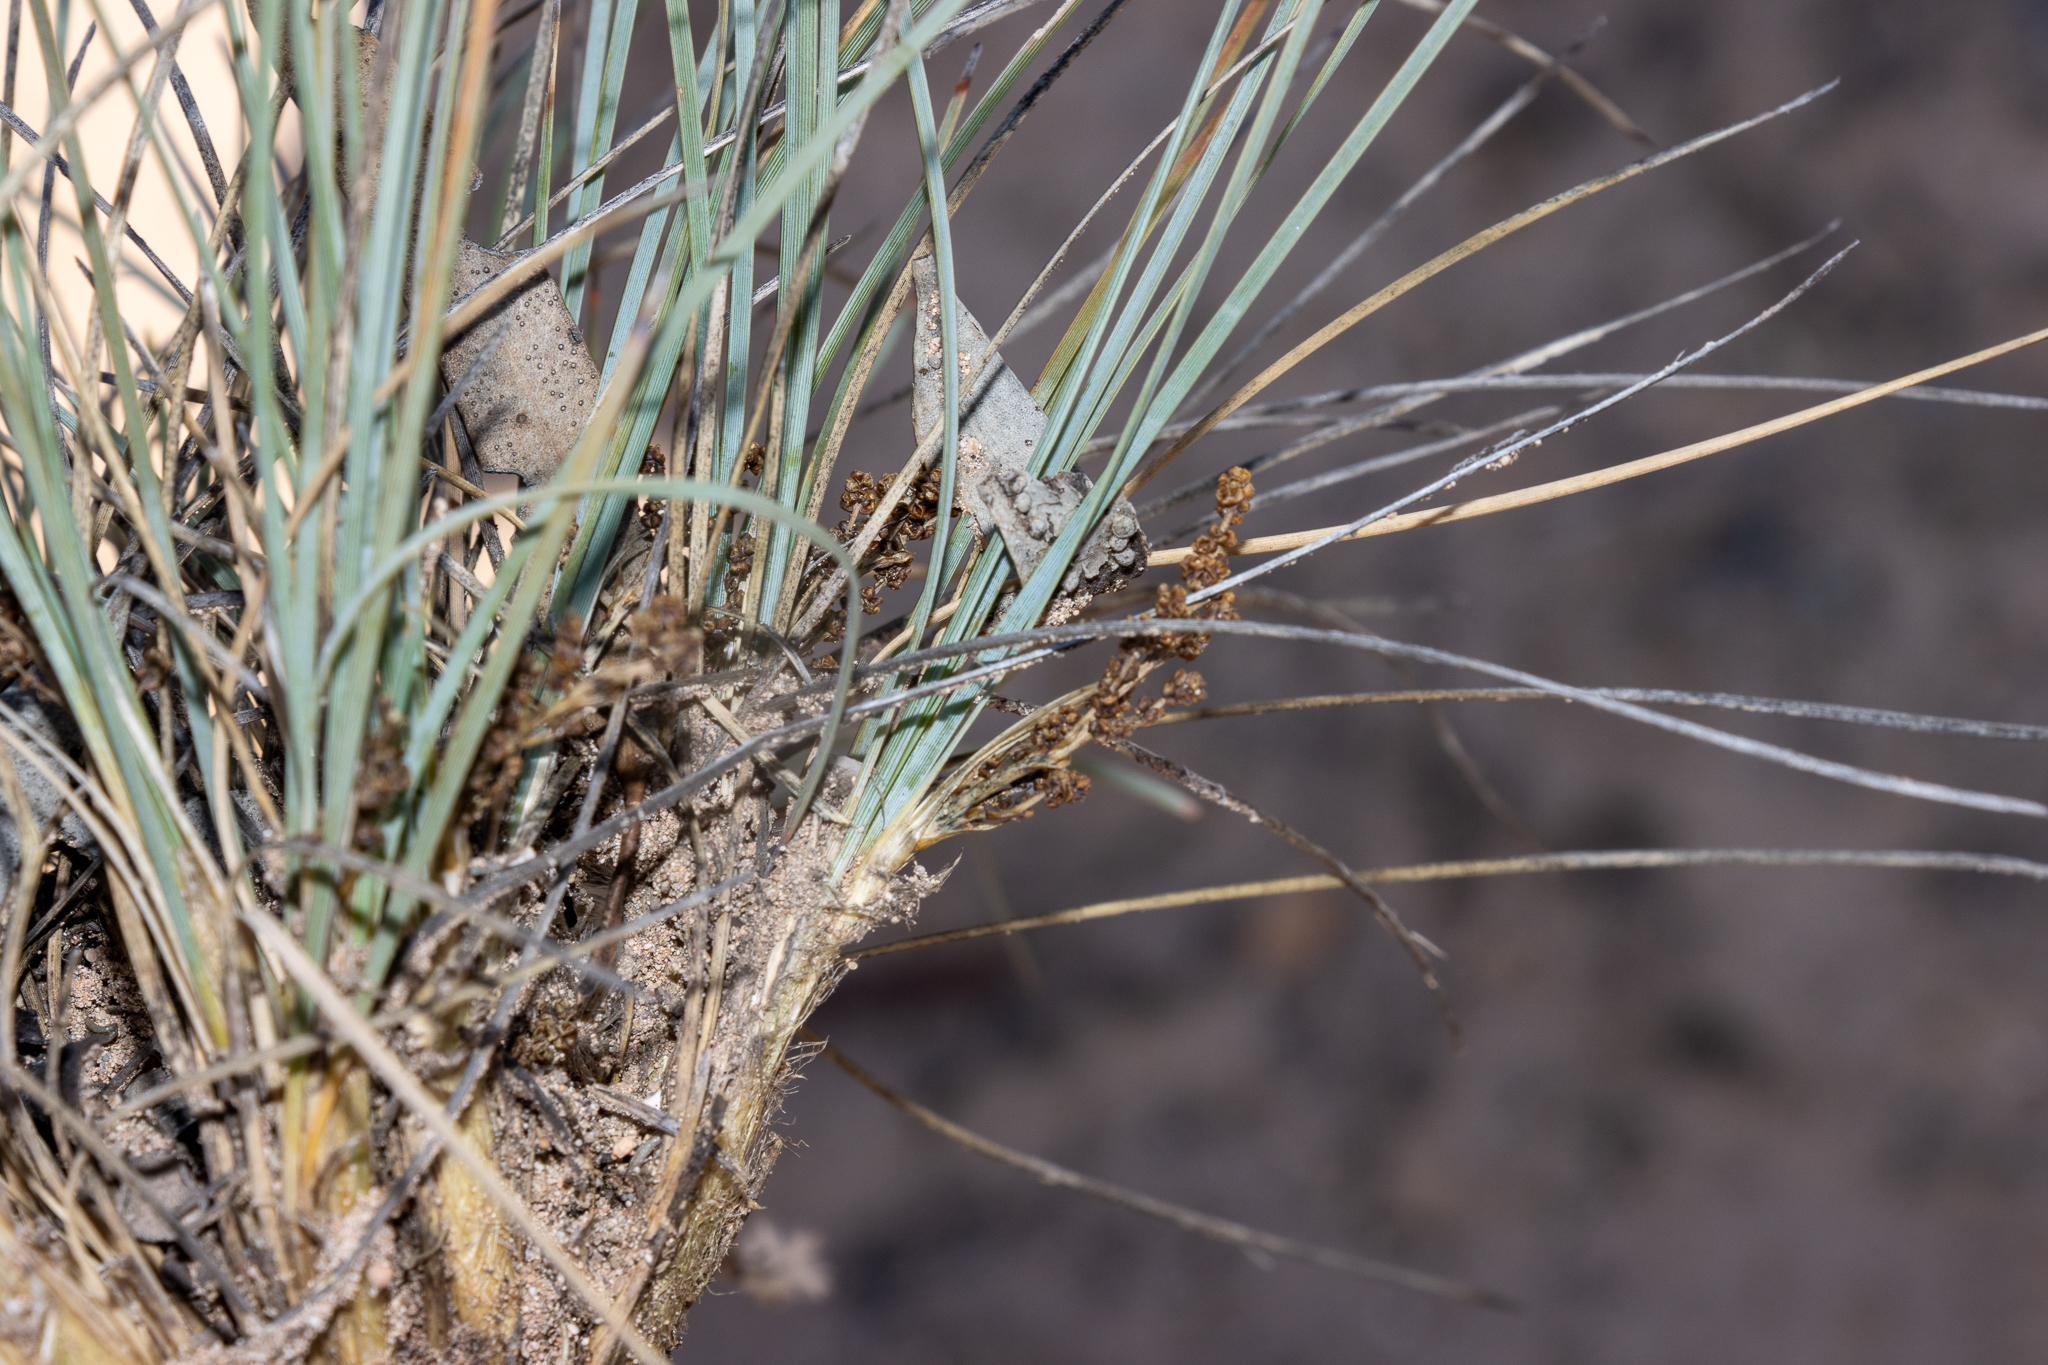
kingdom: Plantae
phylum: Tracheophyta
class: Liliopsida
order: Asparagales
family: Asparagaceae
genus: Lomandra
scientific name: Lomandra collina
